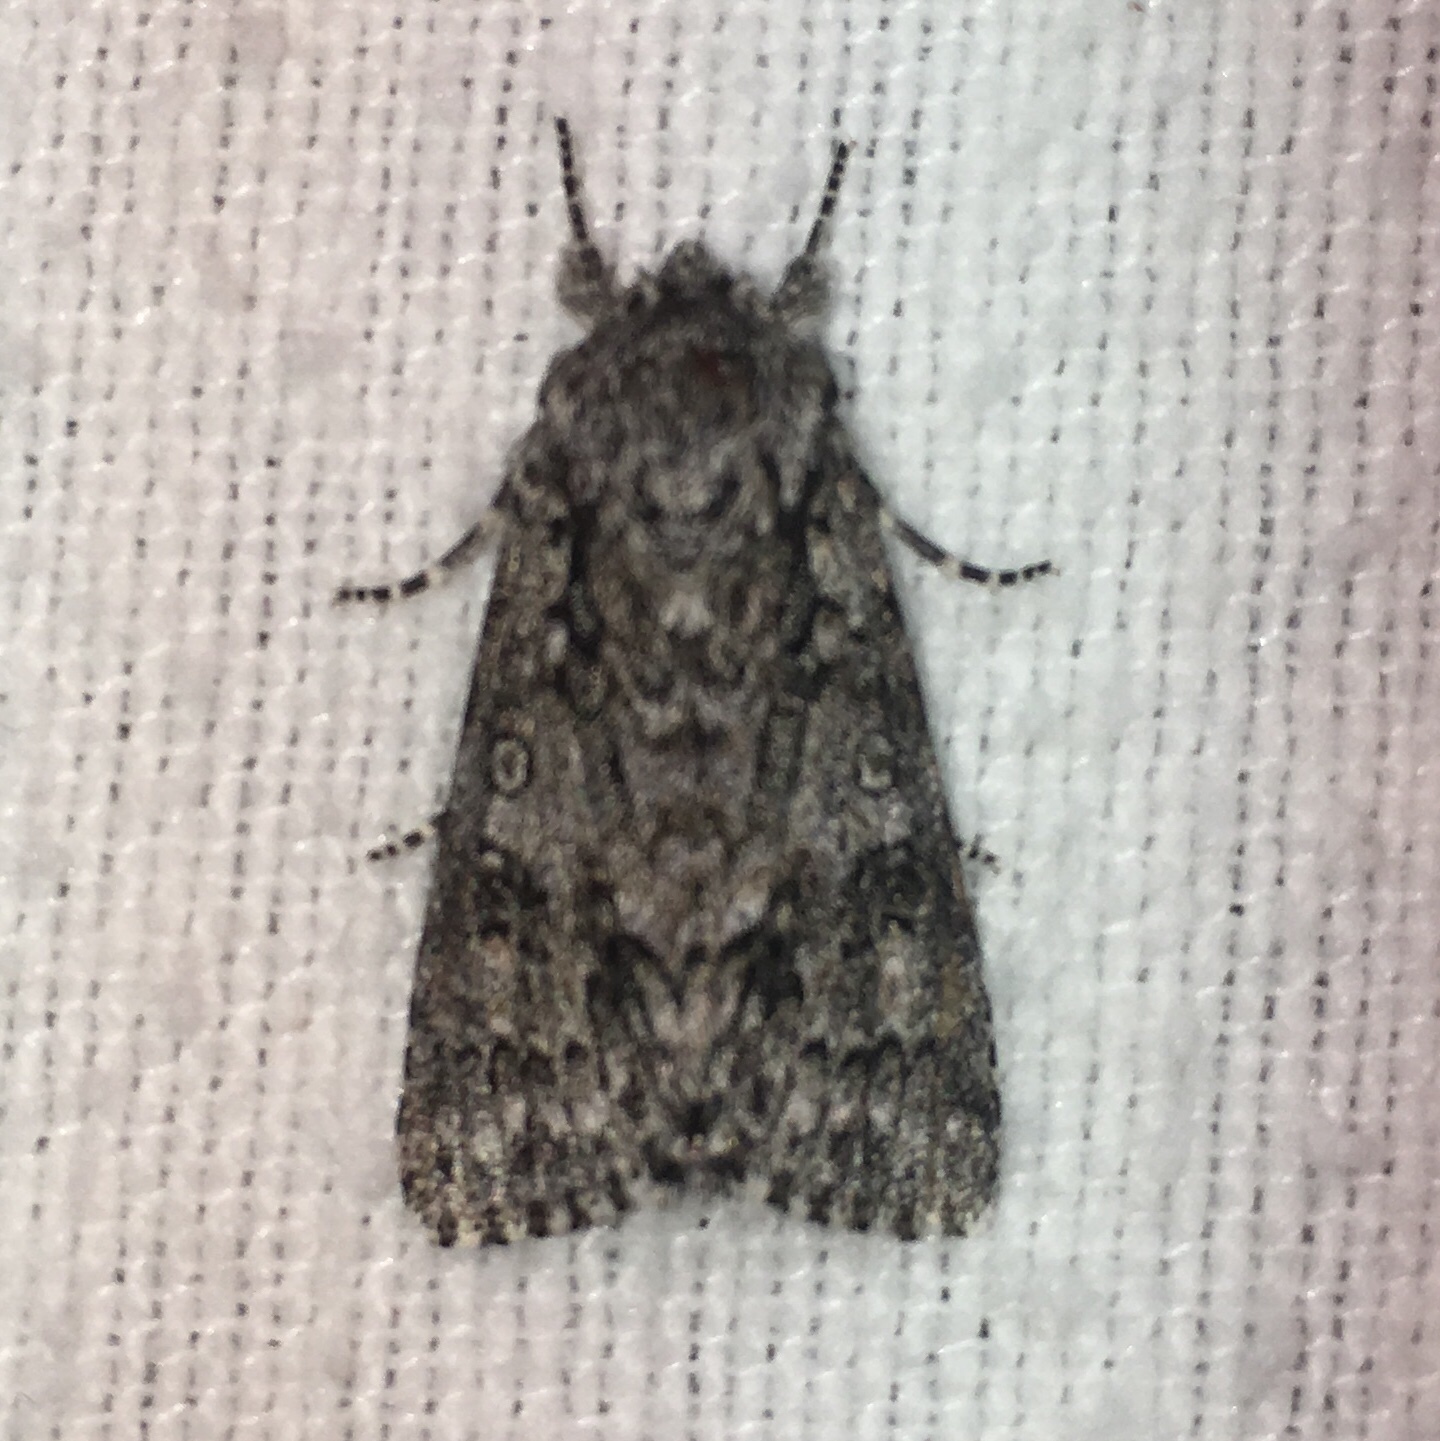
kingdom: Animalia
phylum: Arthropoda
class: Insecta
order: Lepidoptera
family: Noctuidae
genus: Acronicta
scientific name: Acronicta impressa
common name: Impressed dagger
